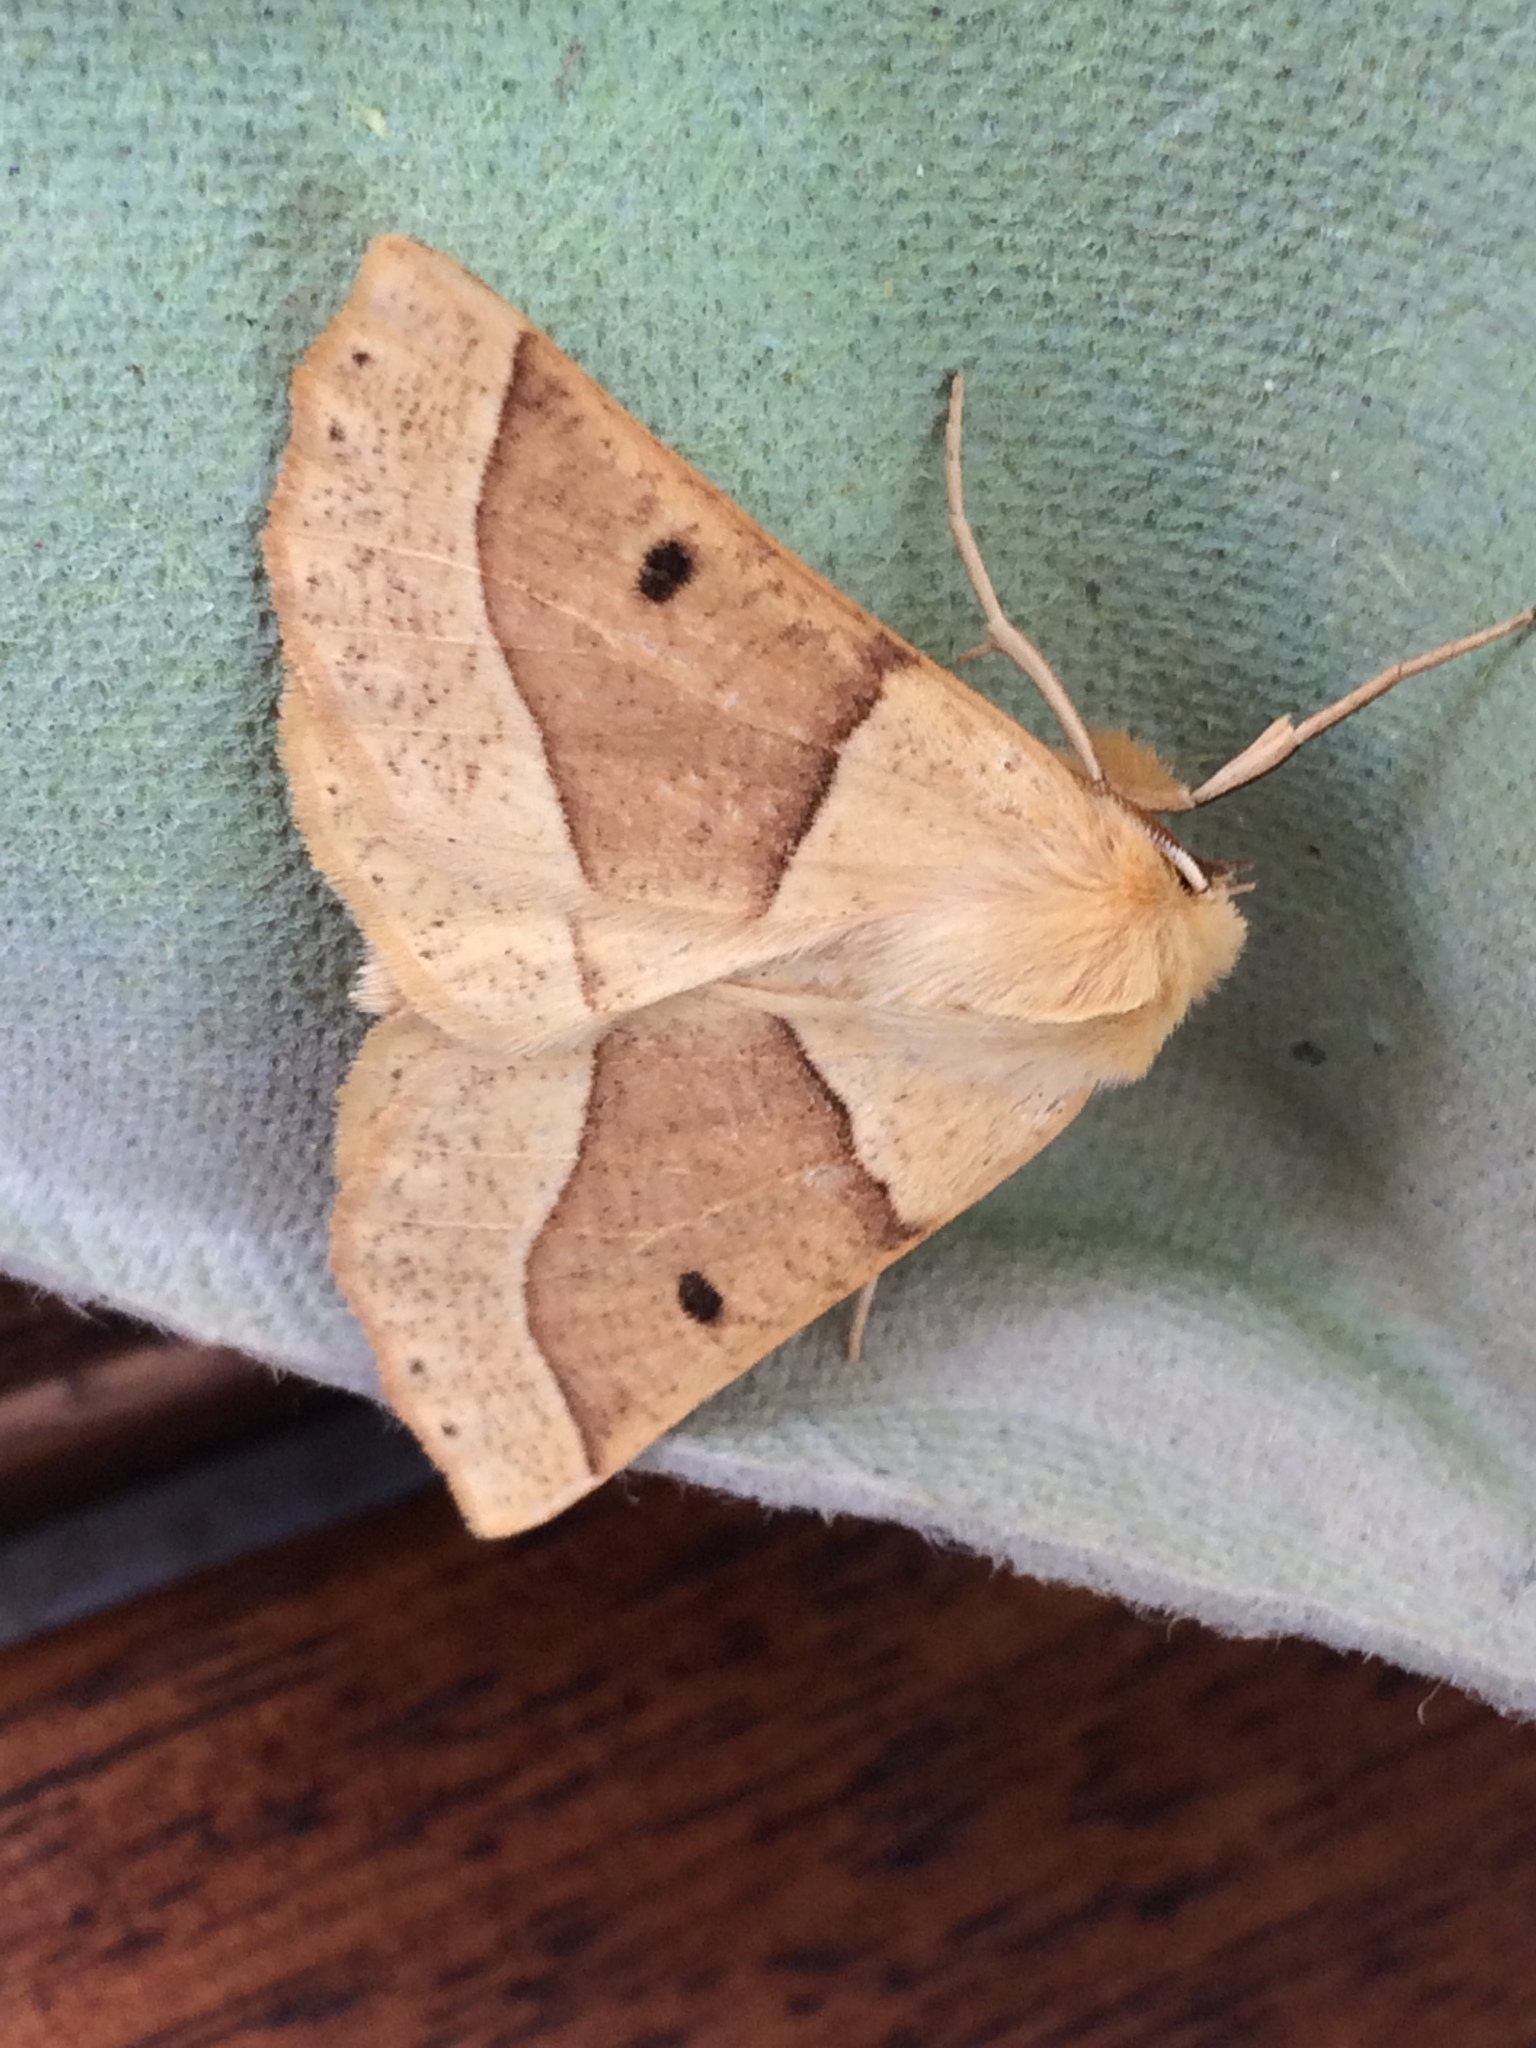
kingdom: Animalia
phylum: Arthropoda
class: Insecta
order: Lepidoptera
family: Geometridae
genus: Crocallis
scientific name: Crocallis elinguaria
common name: Scalloped oak
